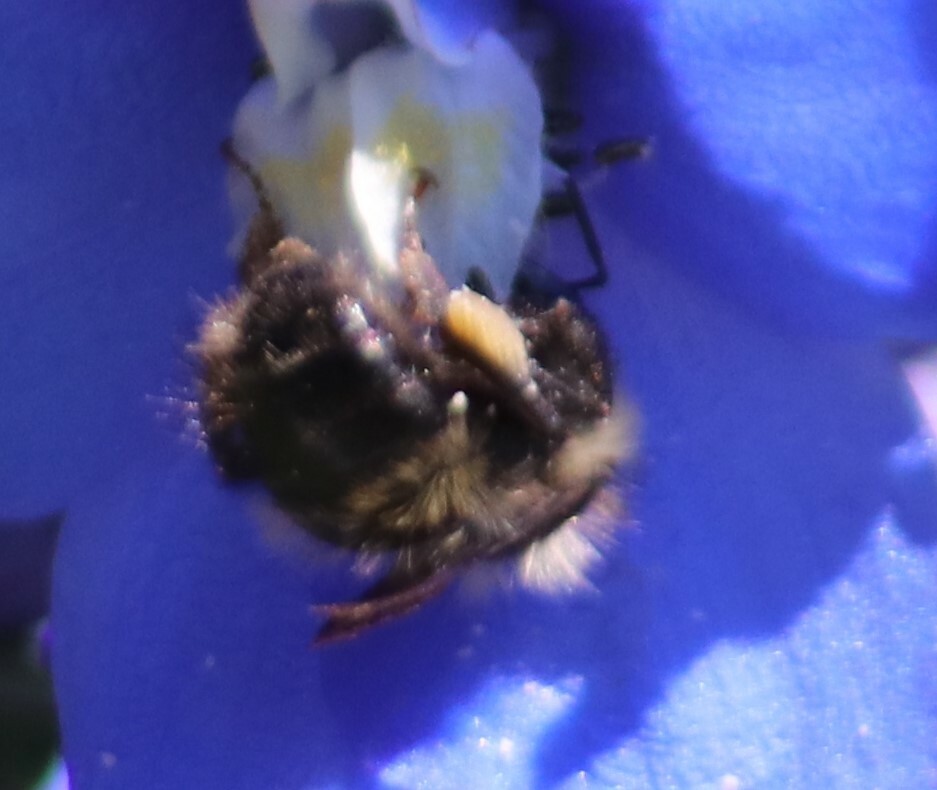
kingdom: Animalia
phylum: Arthropoda
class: Insecta
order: Hymenoptera
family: Apidae
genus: Bombus
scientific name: Bombus vagans
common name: Half-black bumble bee
